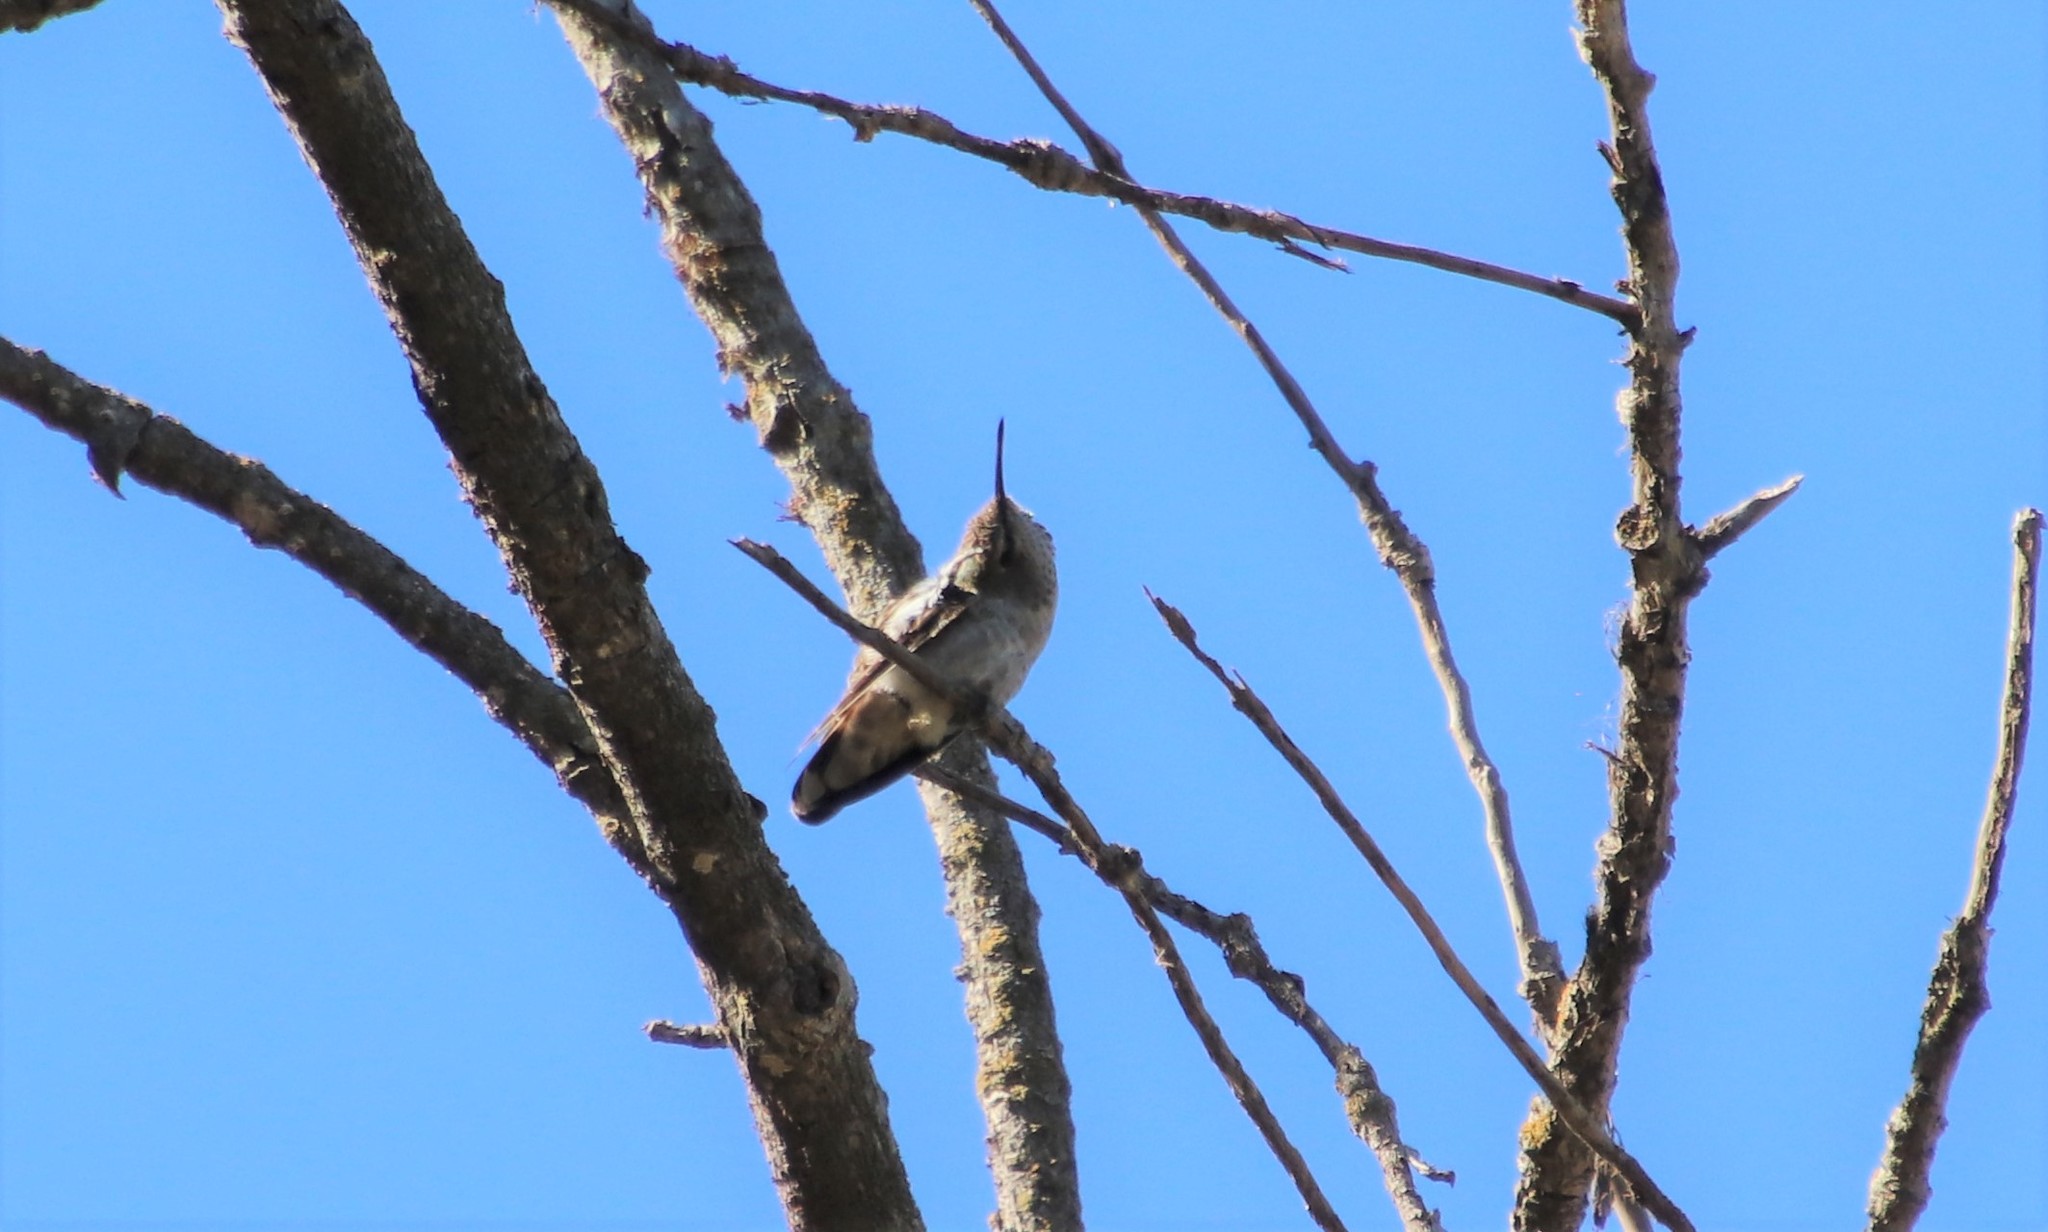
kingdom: Animalia
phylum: Chordata
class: Aves
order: Apodiformes
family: Trochilidae
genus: Calypte
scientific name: Calypte anna
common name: Anna's hummingbird
